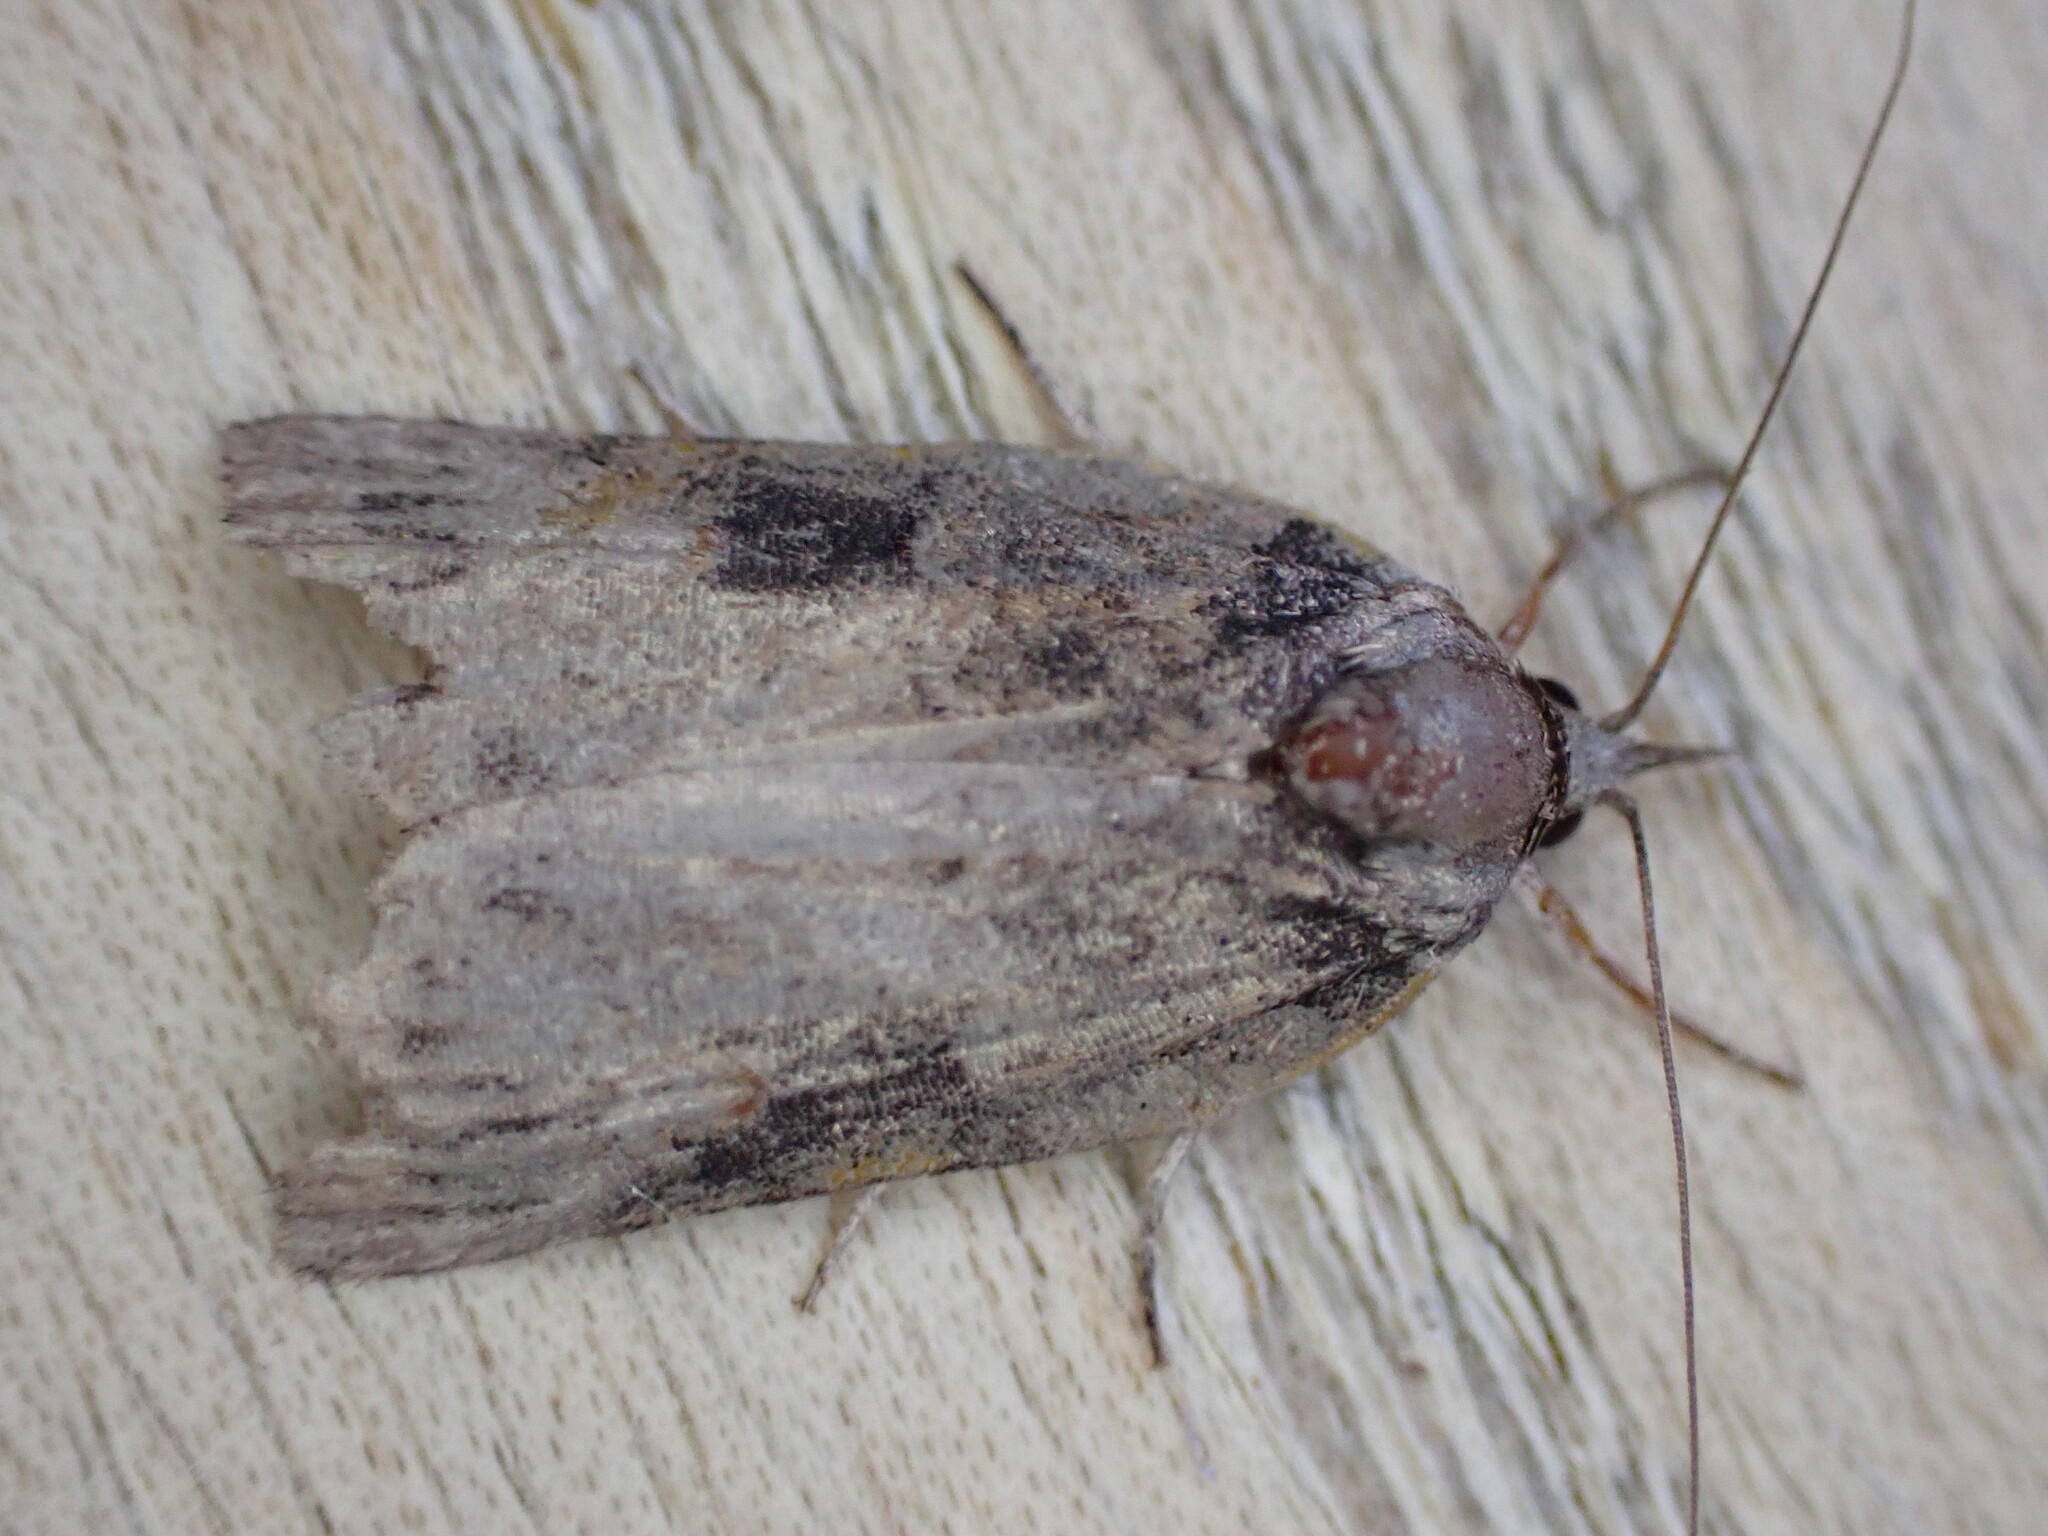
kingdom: Animalia
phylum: Arthropoda
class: Insecta
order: Lepidoptera
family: Nolidae
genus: Nycteola
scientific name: Nycteola revayana
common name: Oak nycteoline
